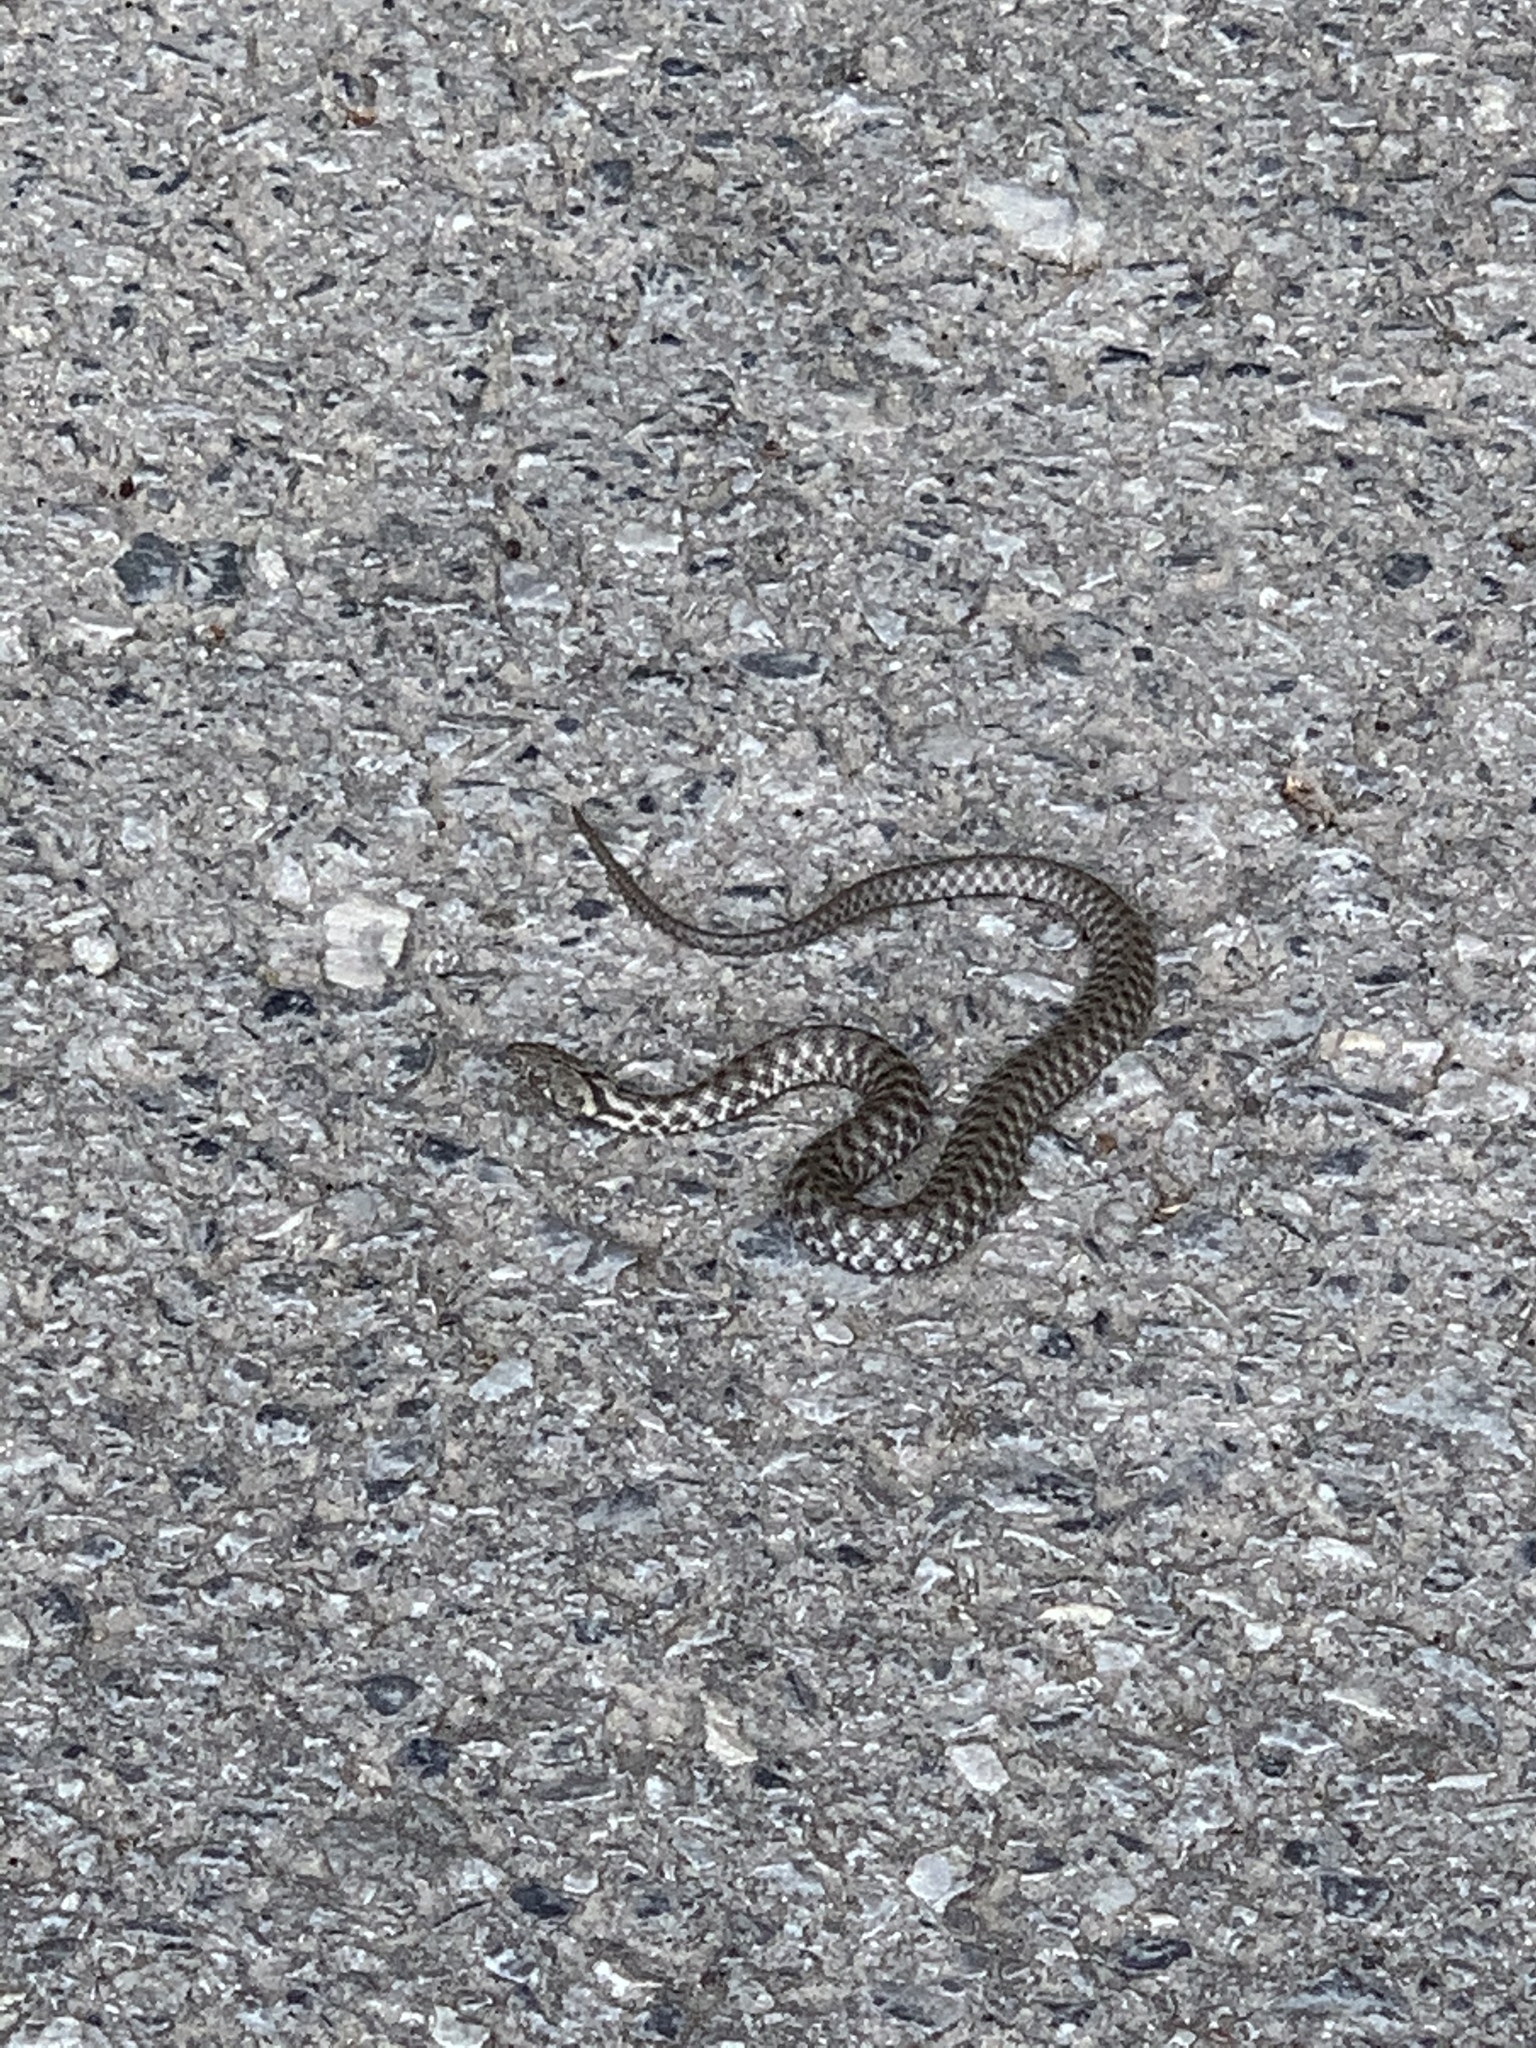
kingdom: Animalia
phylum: Chordata
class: Squamata
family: Colubridae
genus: Natrix
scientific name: Natrix tessellata
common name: Dice snake
